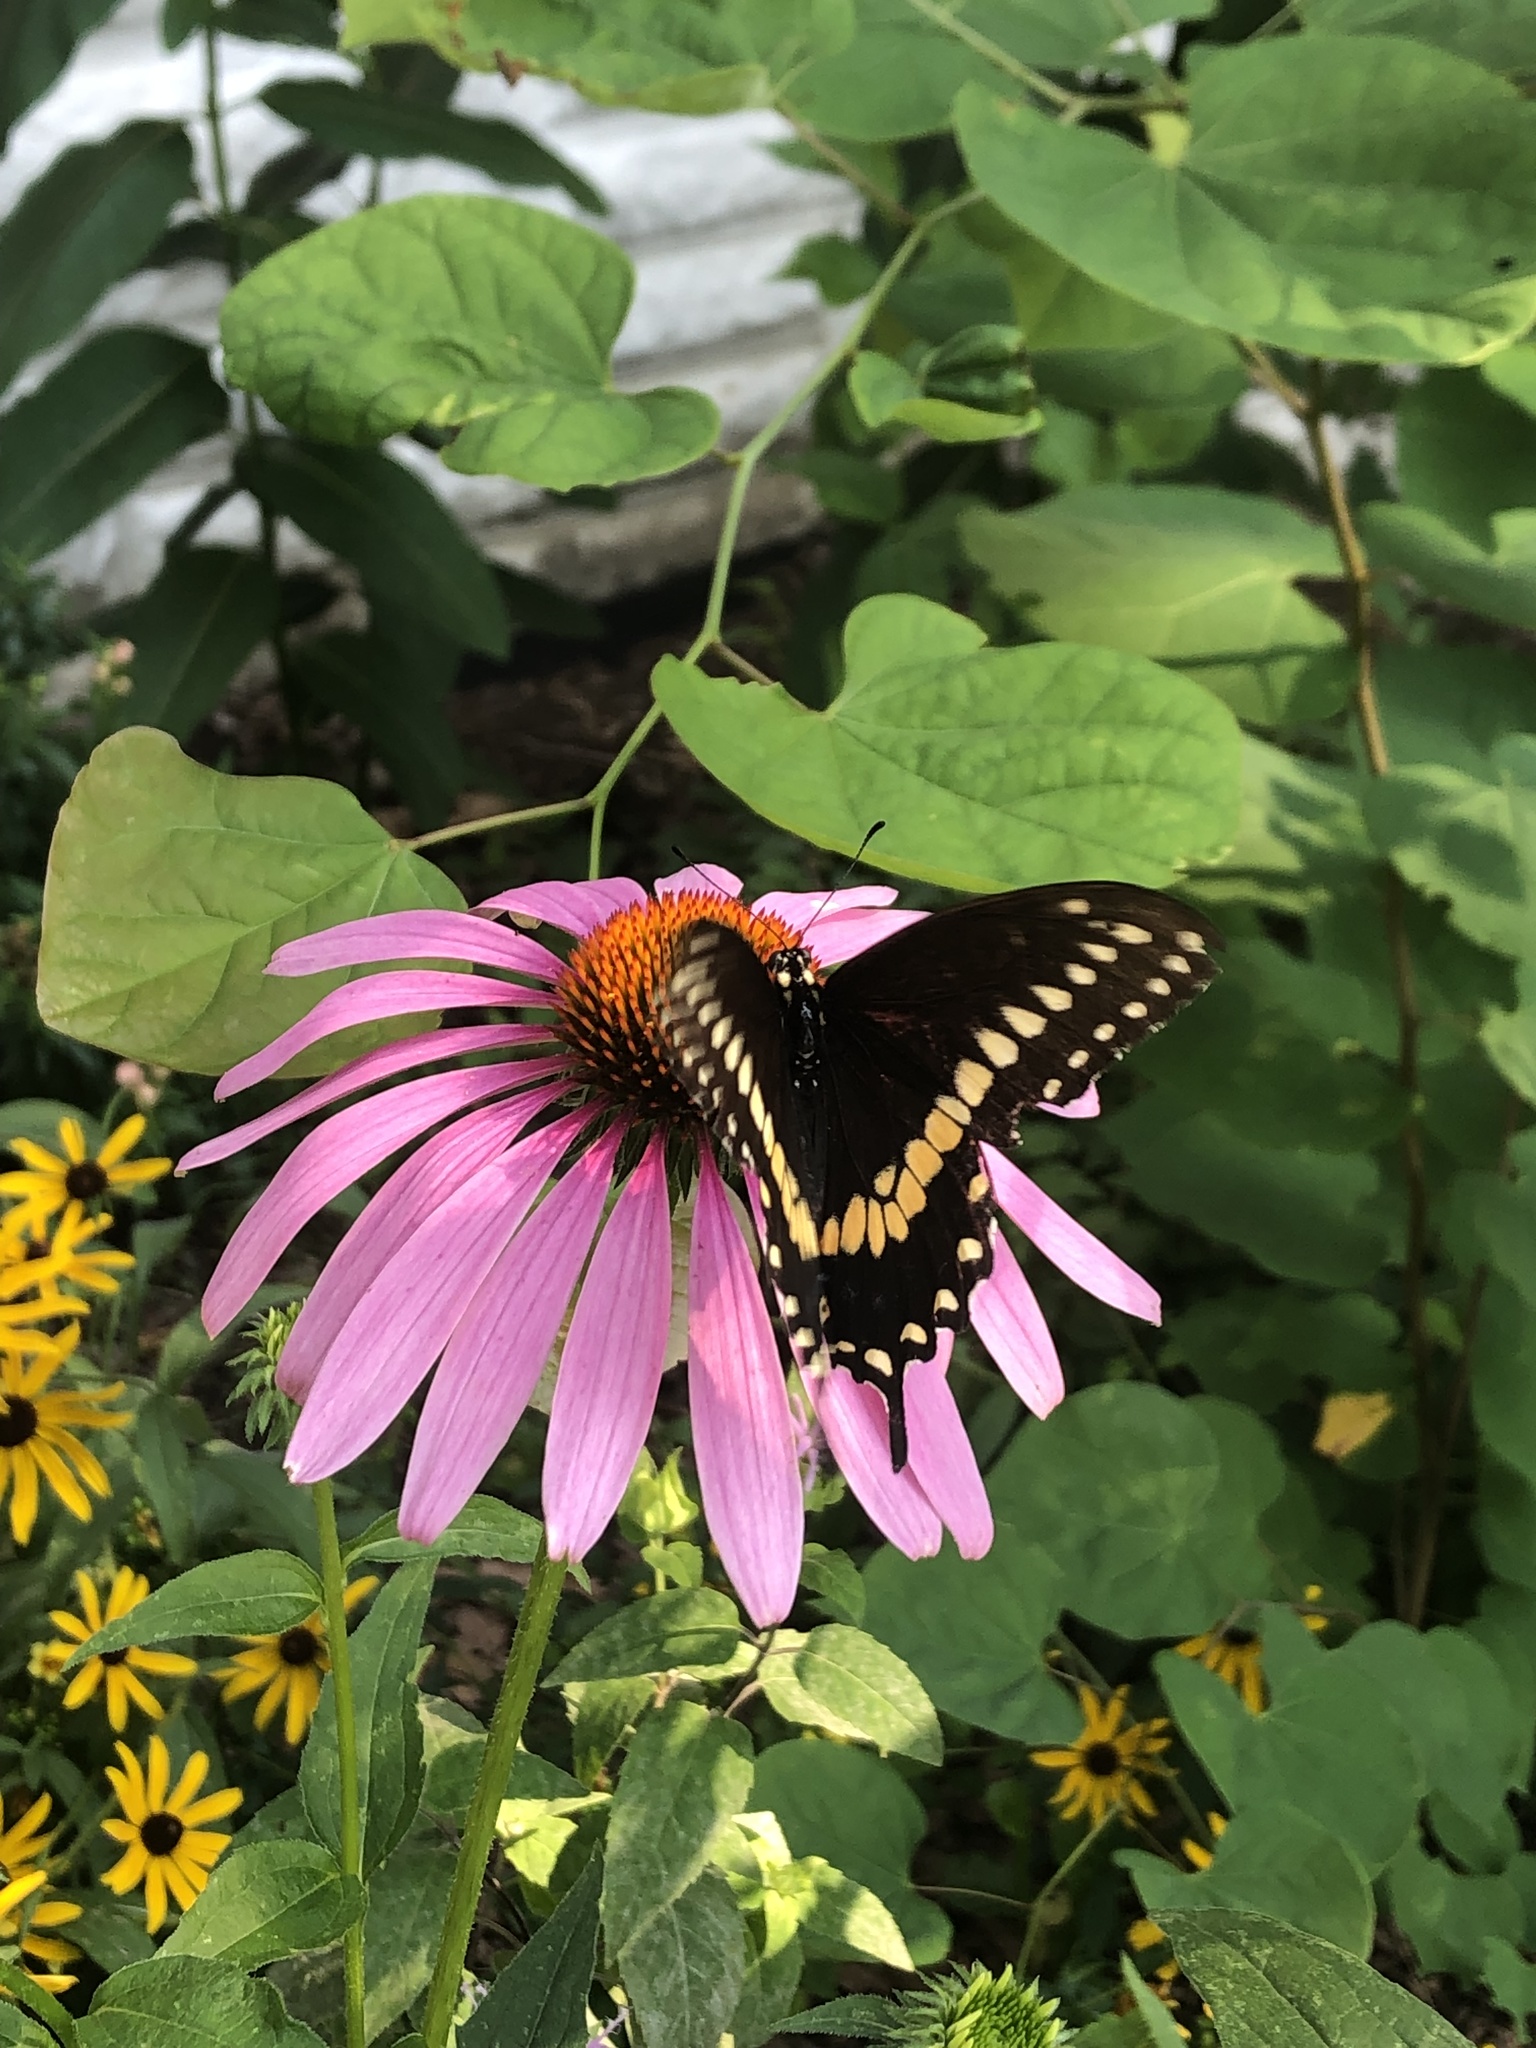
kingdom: Animalia
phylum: Arthropoda
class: Insecta
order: Lepidoptera
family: Papilionidae
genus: Papilio
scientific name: Papilio polyxenes
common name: Black swallowtail
